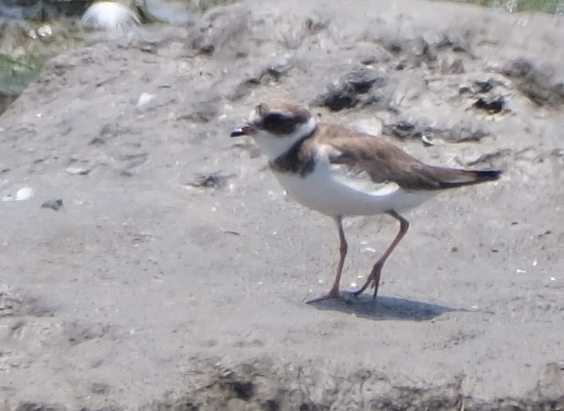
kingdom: Animalia
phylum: Chordata
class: Aves
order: Charadriiformes
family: Charadriidae
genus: Charadrius
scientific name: Charadrius semipalmatus
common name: Semipalmated plover
